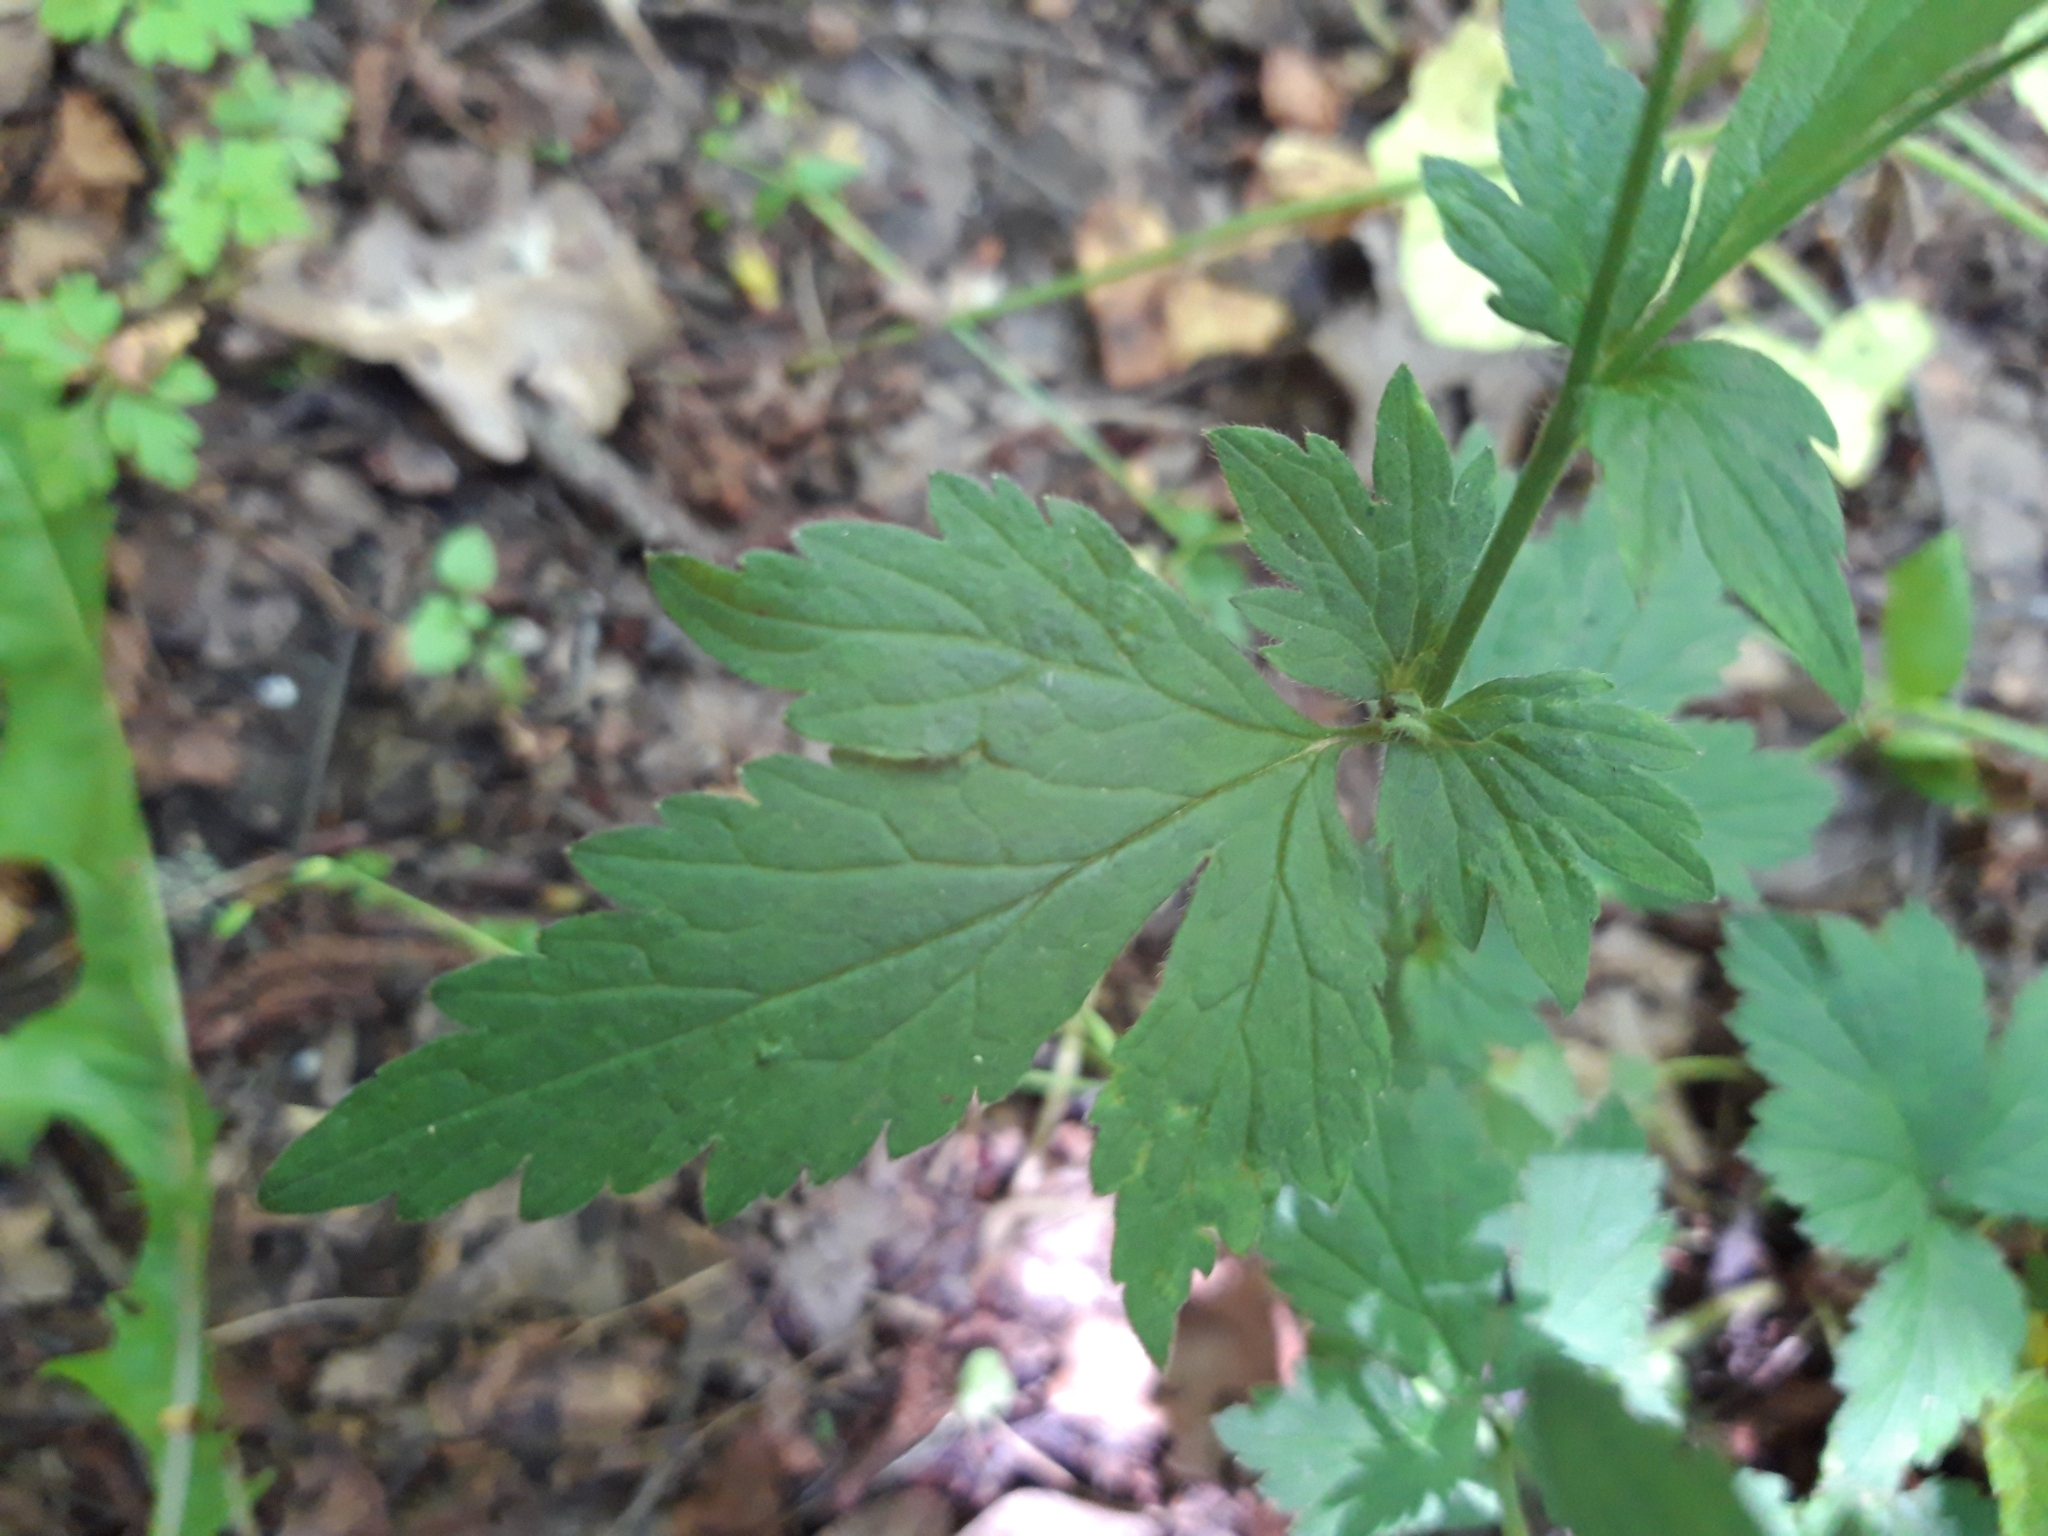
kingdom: Plantae
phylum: Tracheophyta
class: Magnoliopsida
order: Rosales
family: Rosaceae
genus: Geum
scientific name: Geum urbanum
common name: Wood avens
